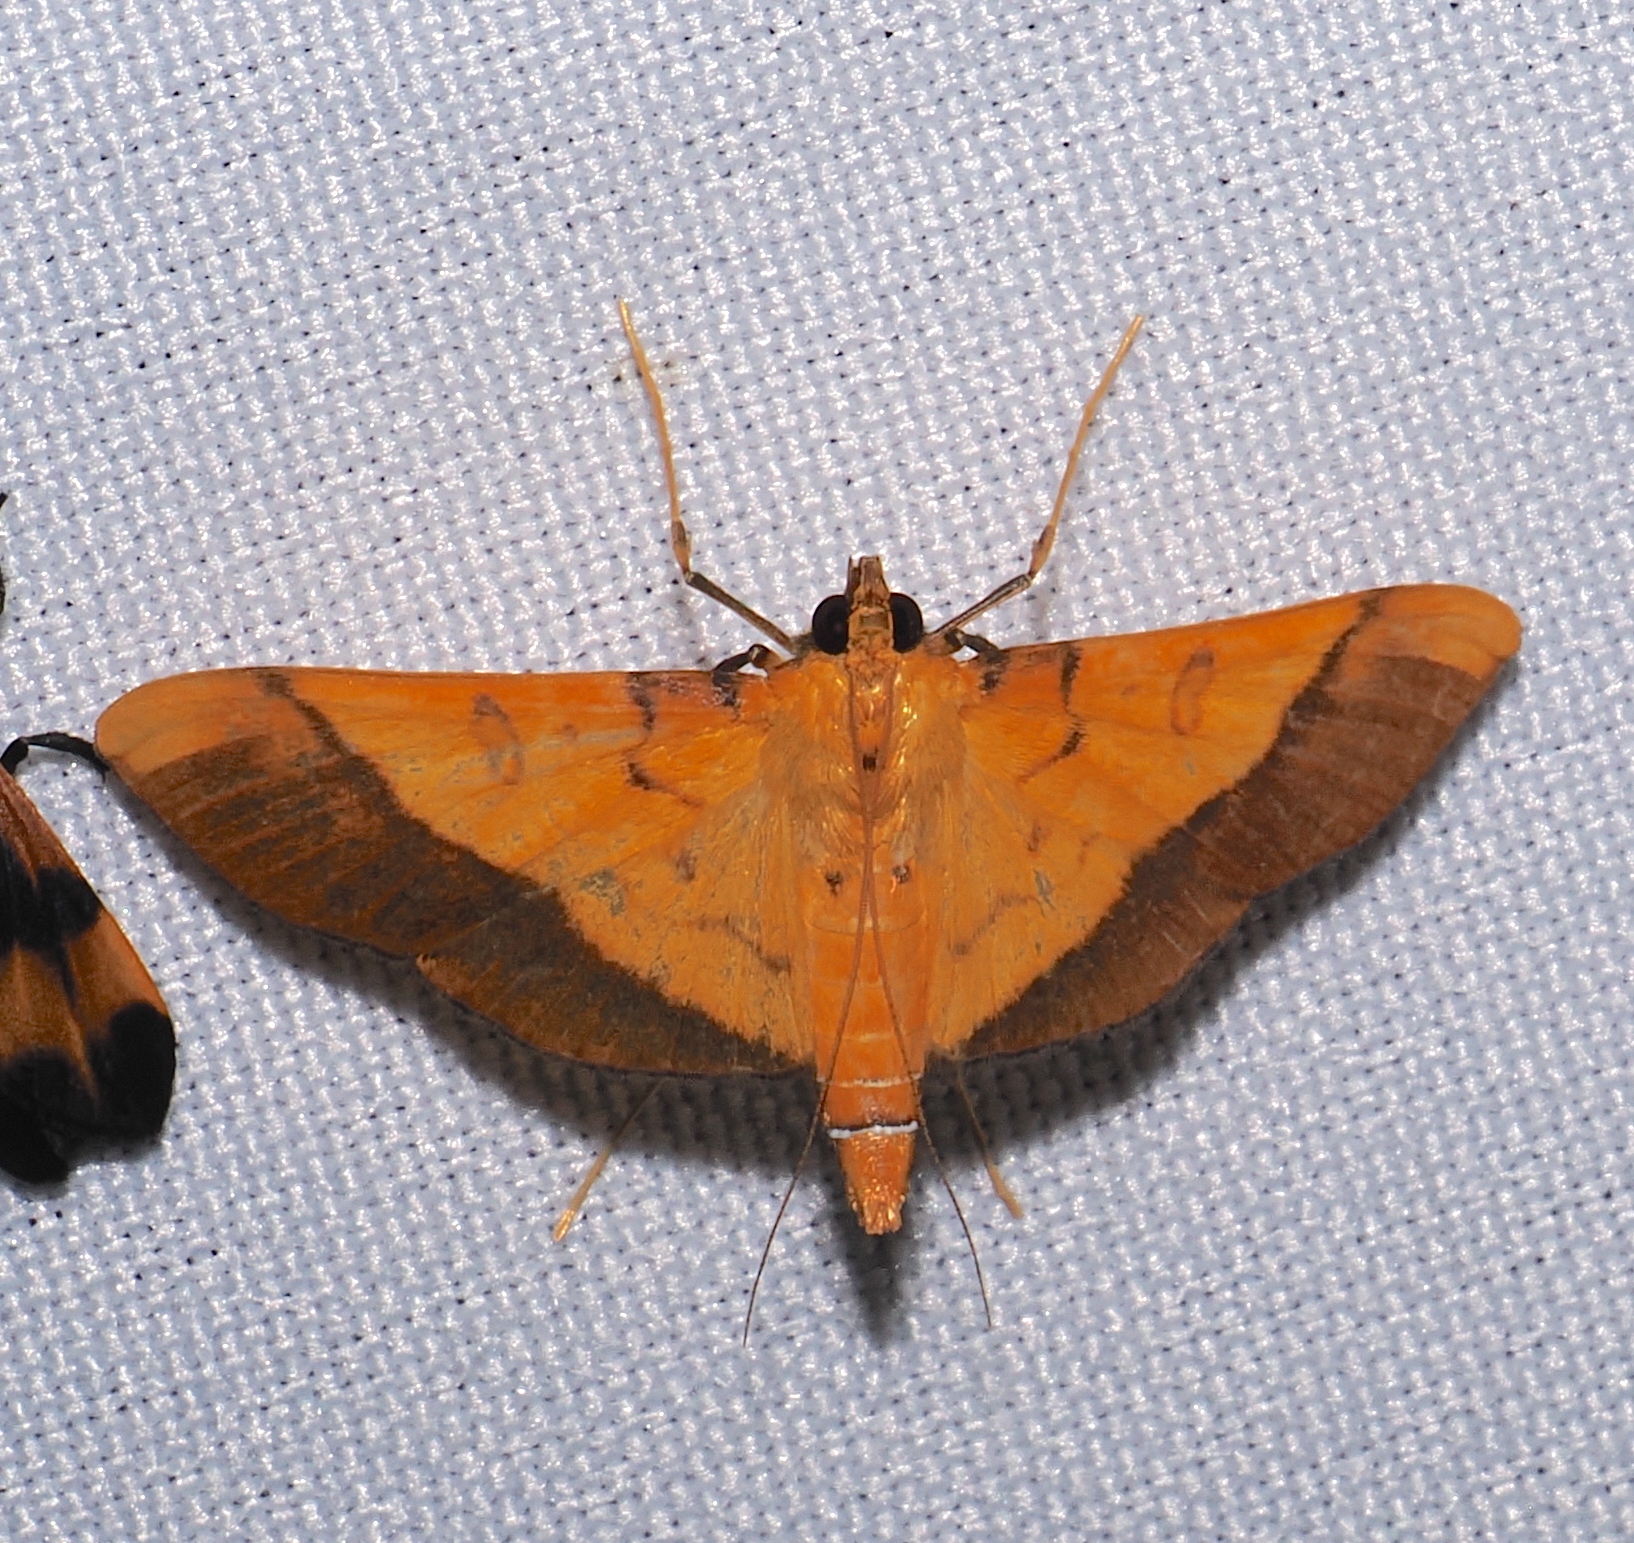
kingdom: Animalia
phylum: Arthropoda
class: Insecta
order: Lepidoptera
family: Crambidae
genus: Desmia
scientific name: Desmia flavalis
